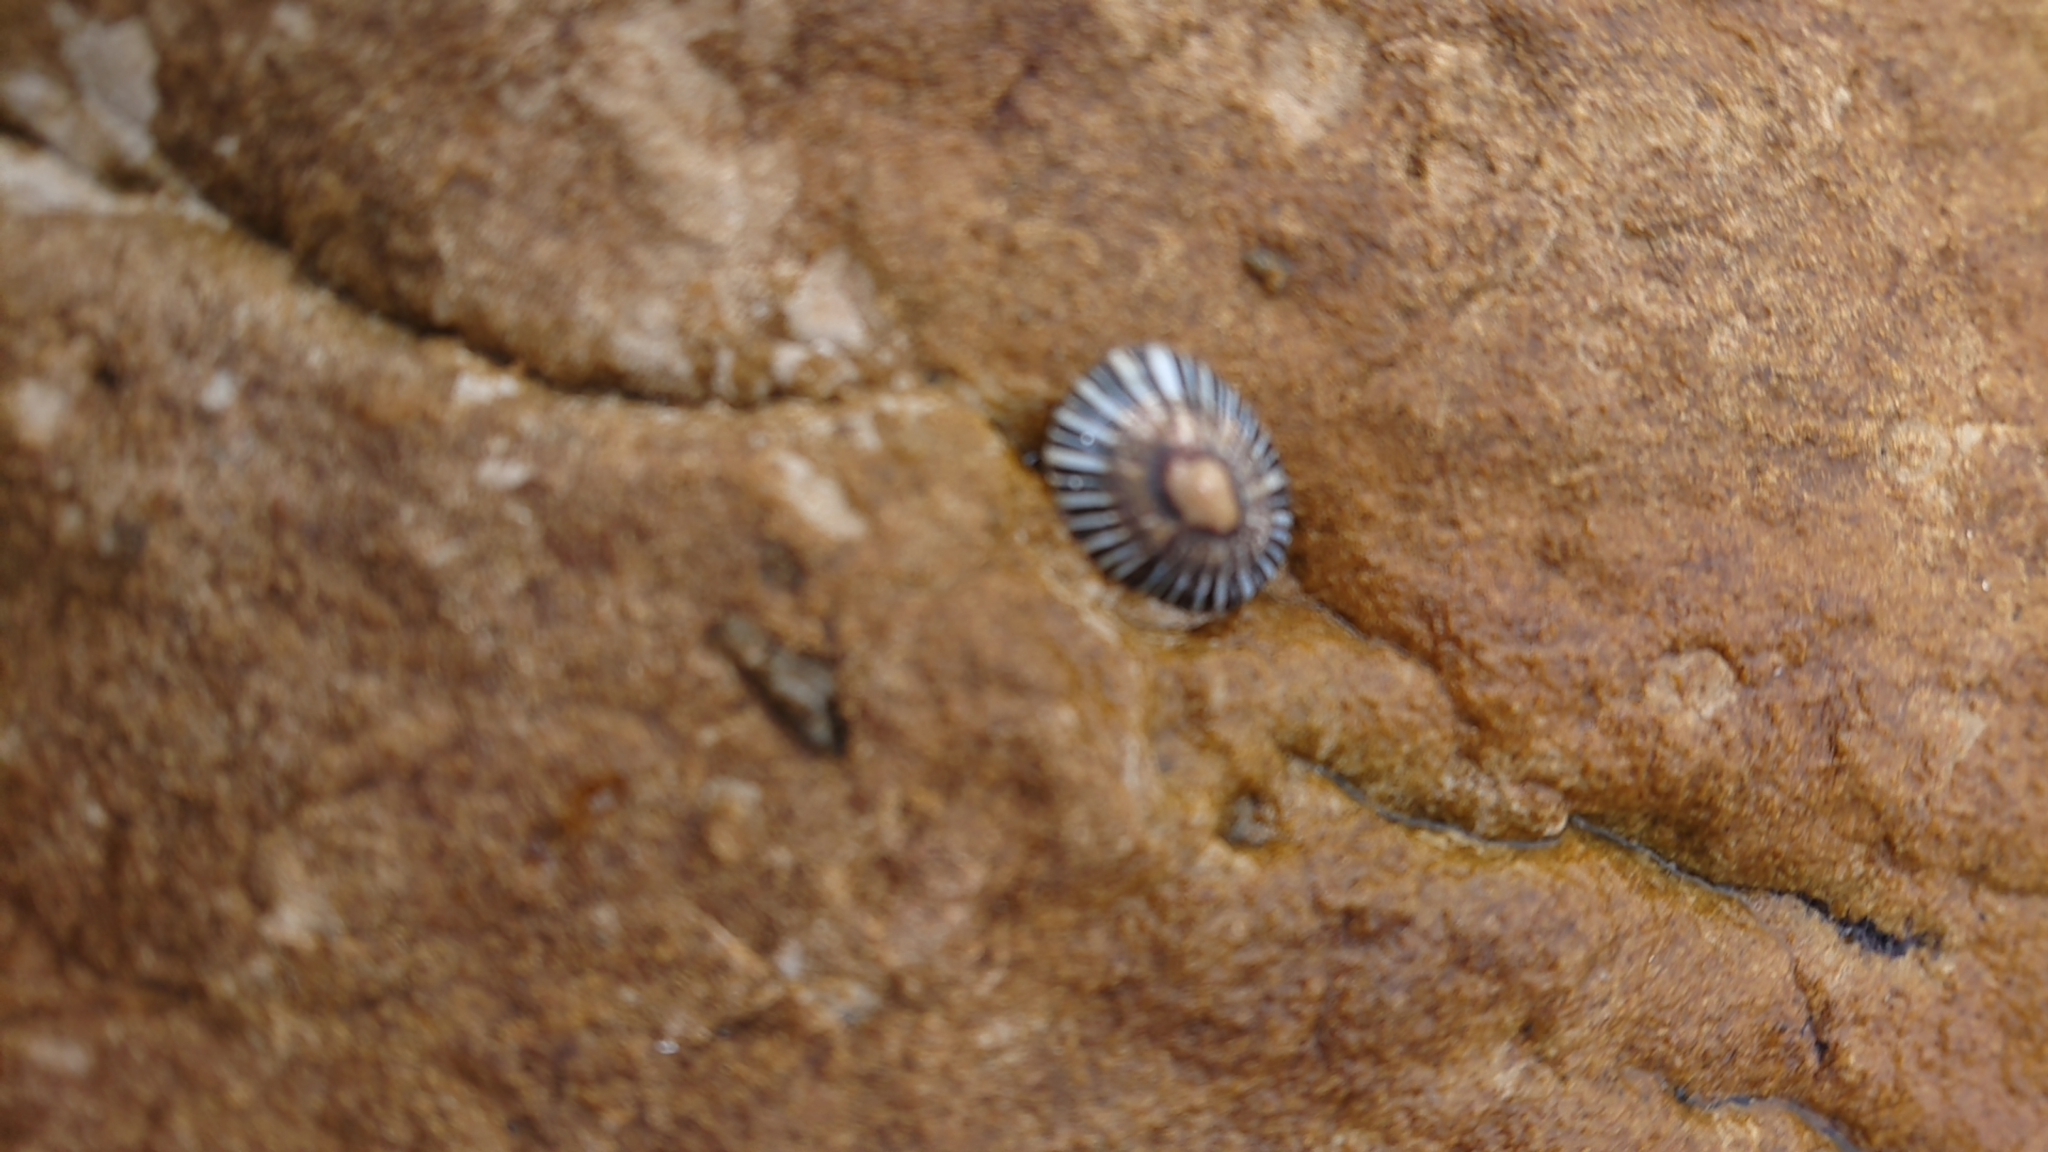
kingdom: Animalia
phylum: Mollusca
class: Gastropoda
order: Siphonariida
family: Siphonariidae
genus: Siphonaria
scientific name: Siphonaria funiculata
